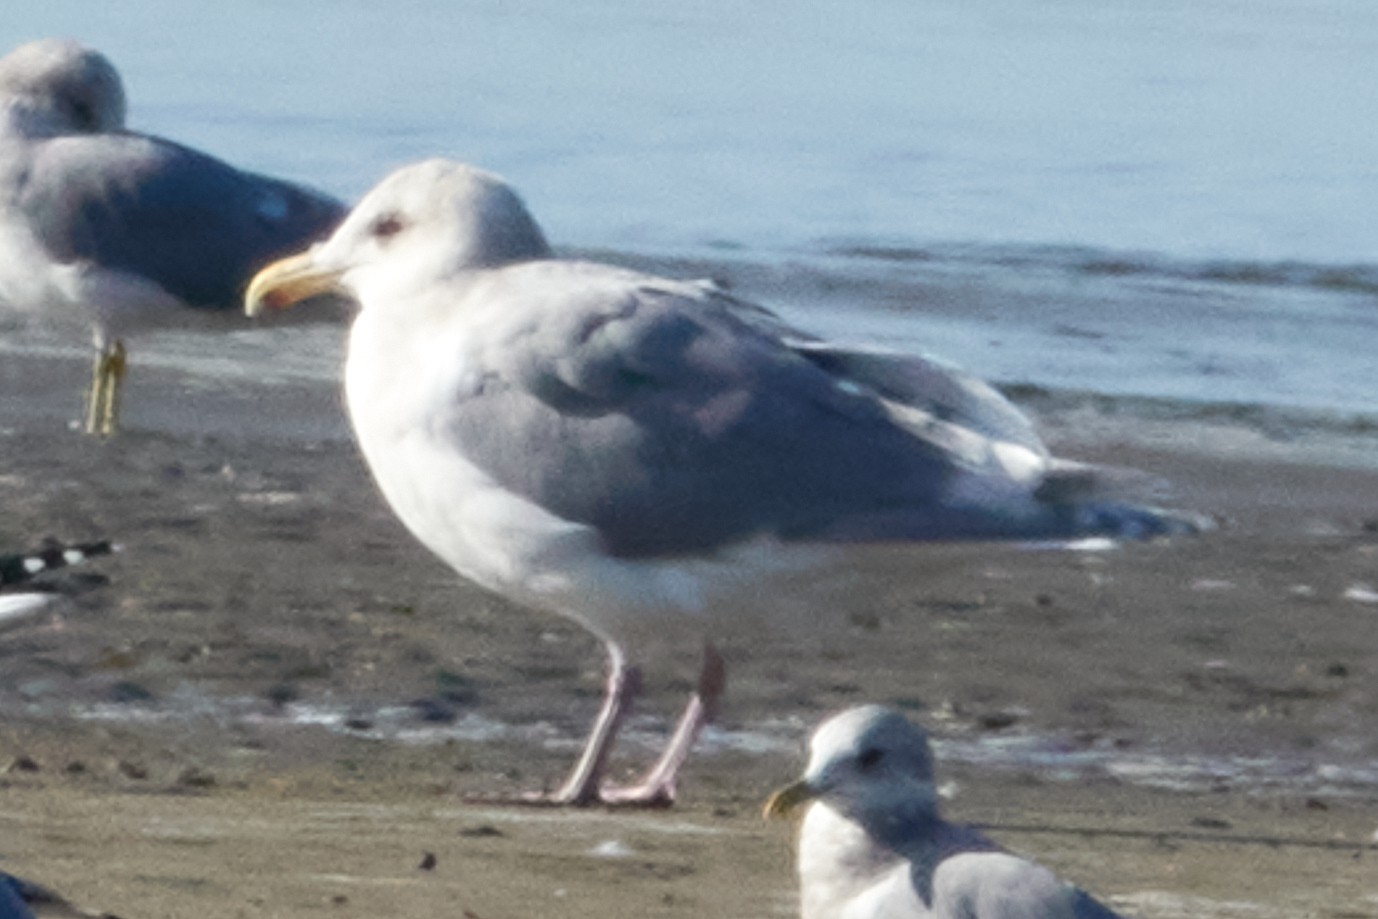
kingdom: Animalia
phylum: Chordata
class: Aves
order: Charadriiformes
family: Laridae
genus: Larus
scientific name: Larus glaucescens
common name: Glaucous-winged gull
